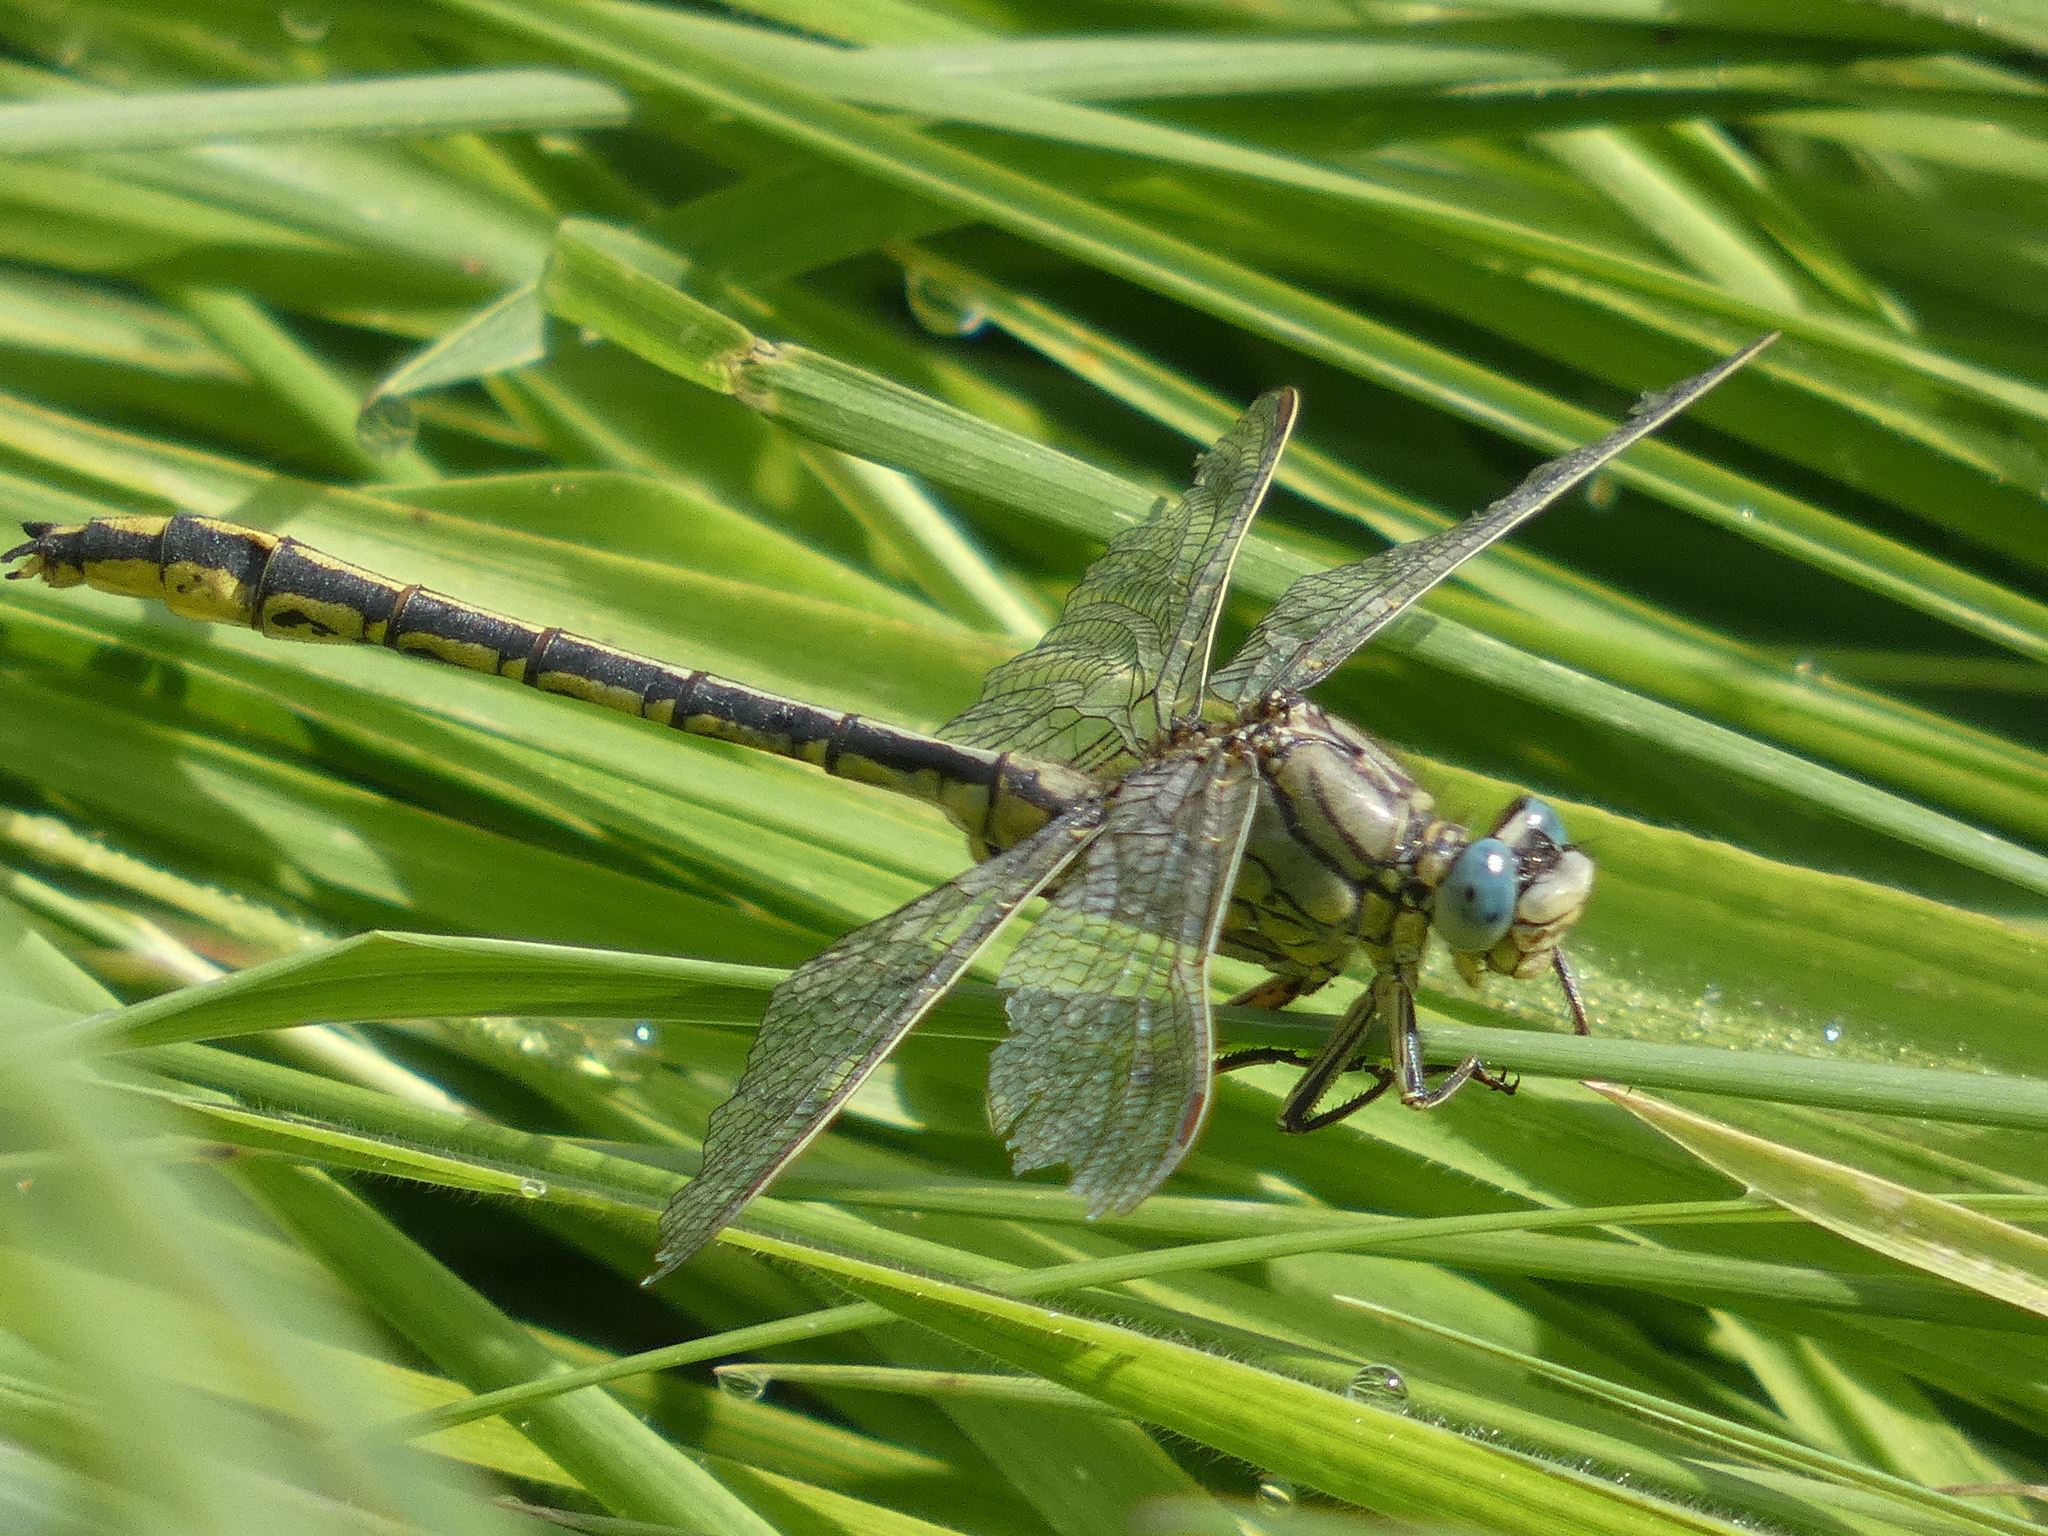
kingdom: Animalia
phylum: Arthropoda
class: Insecta
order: Odonata
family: Gomphidae
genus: Gomphus
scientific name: Gomphus pulchellus
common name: Western clubtail
